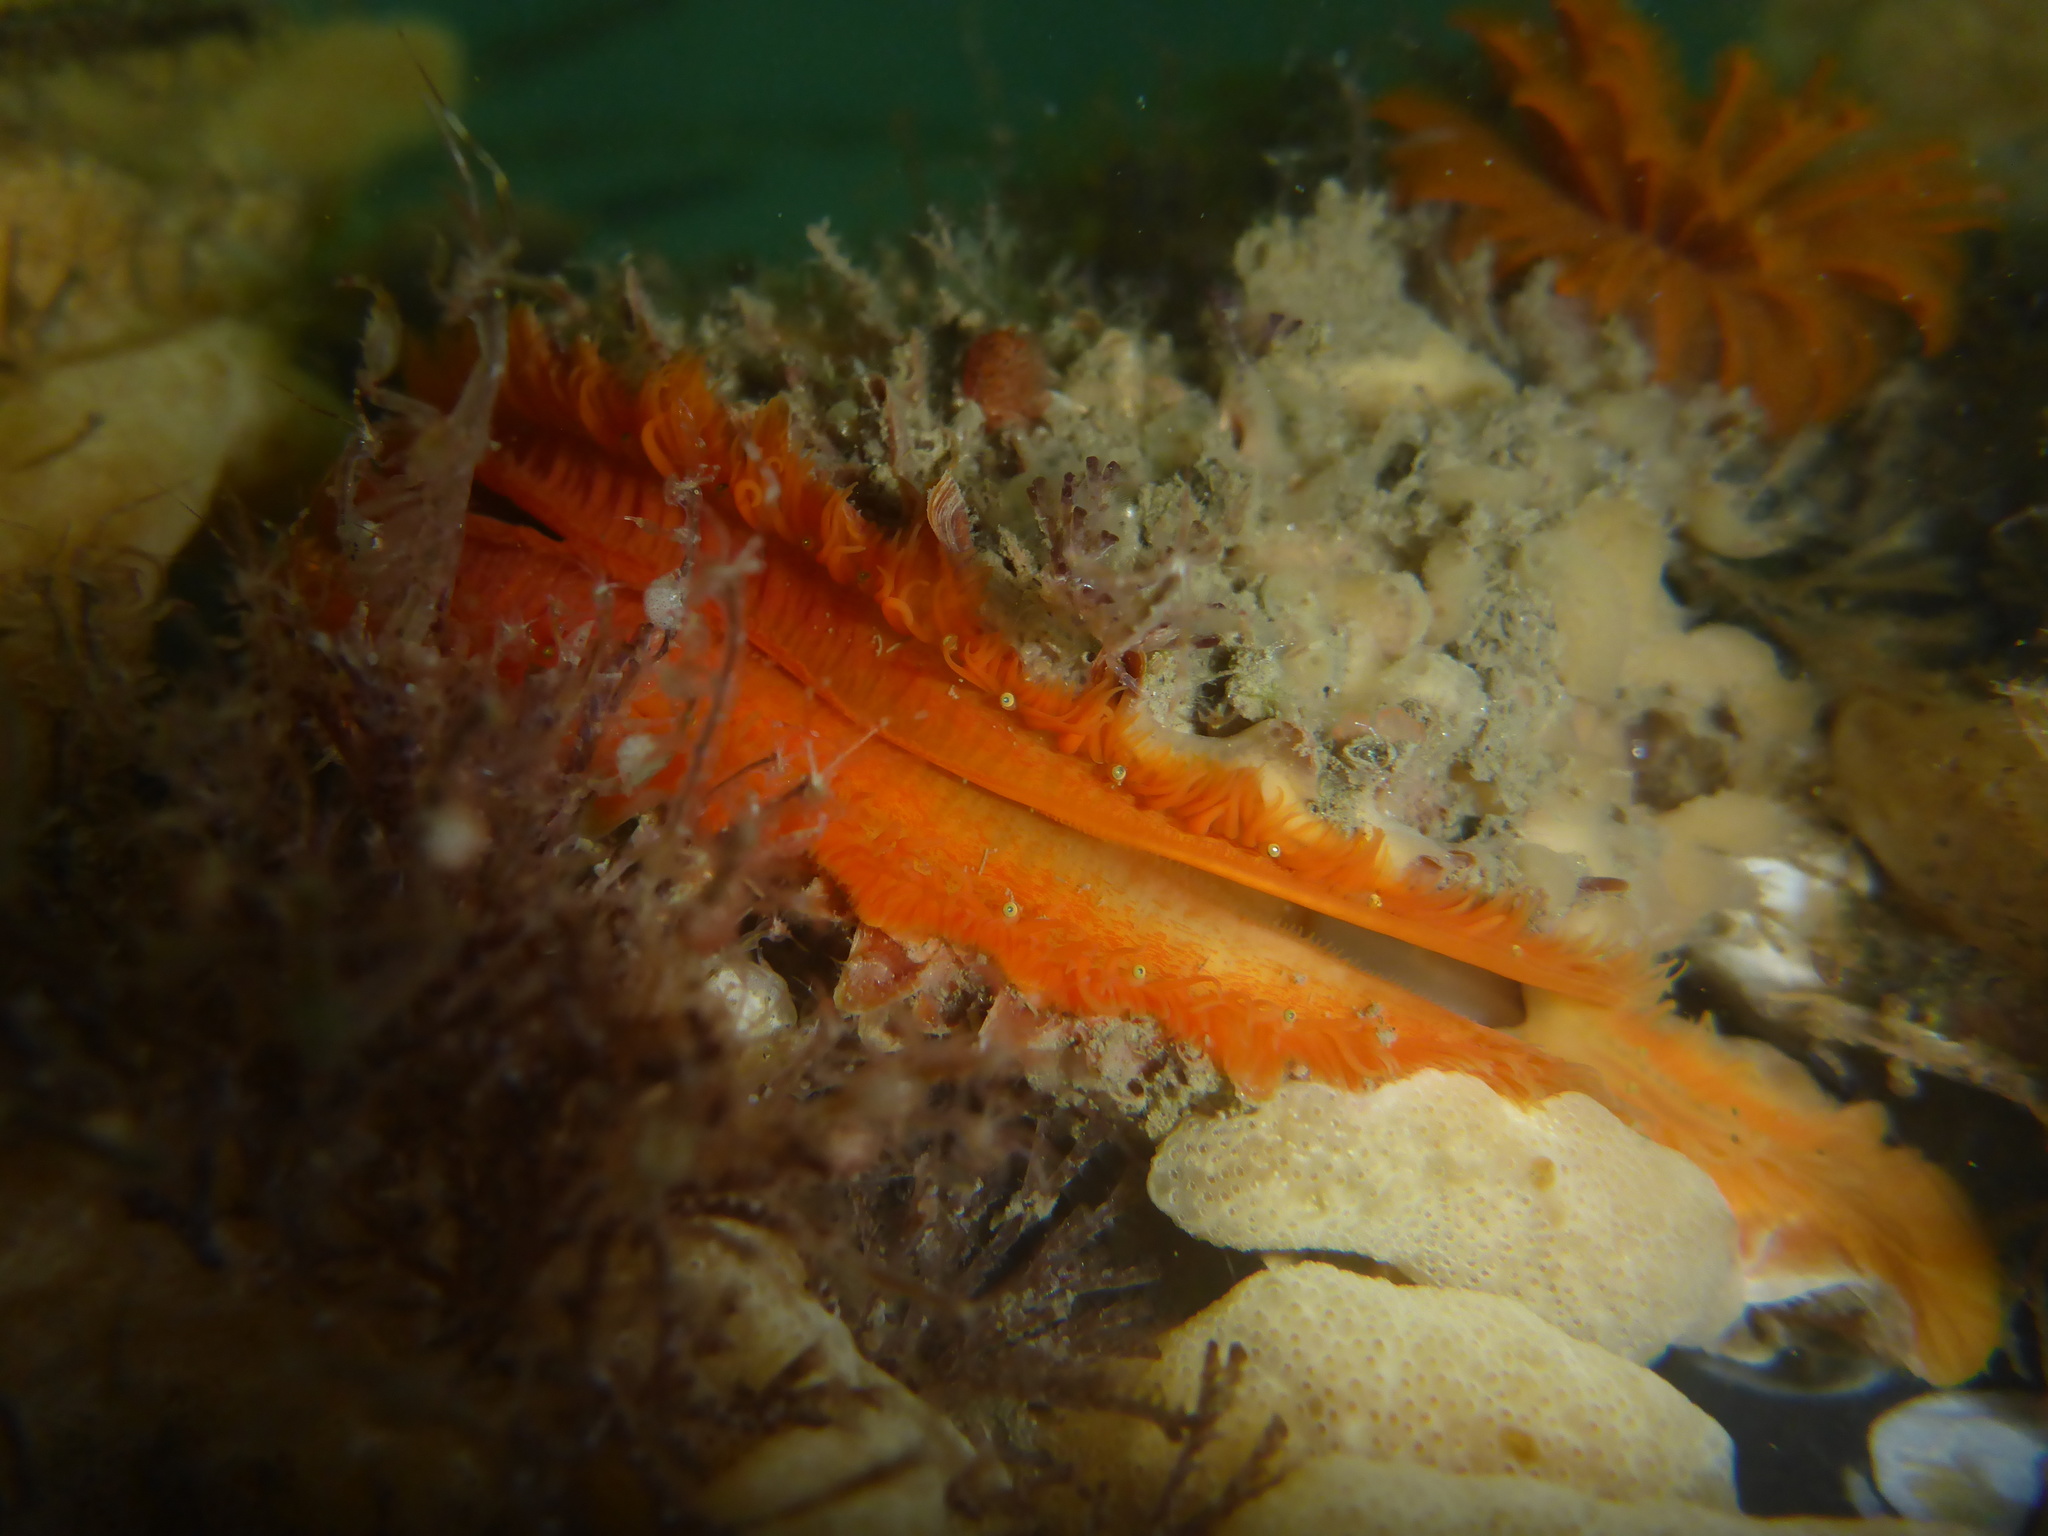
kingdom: Animalia
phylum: Mollusca
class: Bivalvia
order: Pectinida
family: Pectinidae
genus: Crassadoma
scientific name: Crassadoma gigantea
